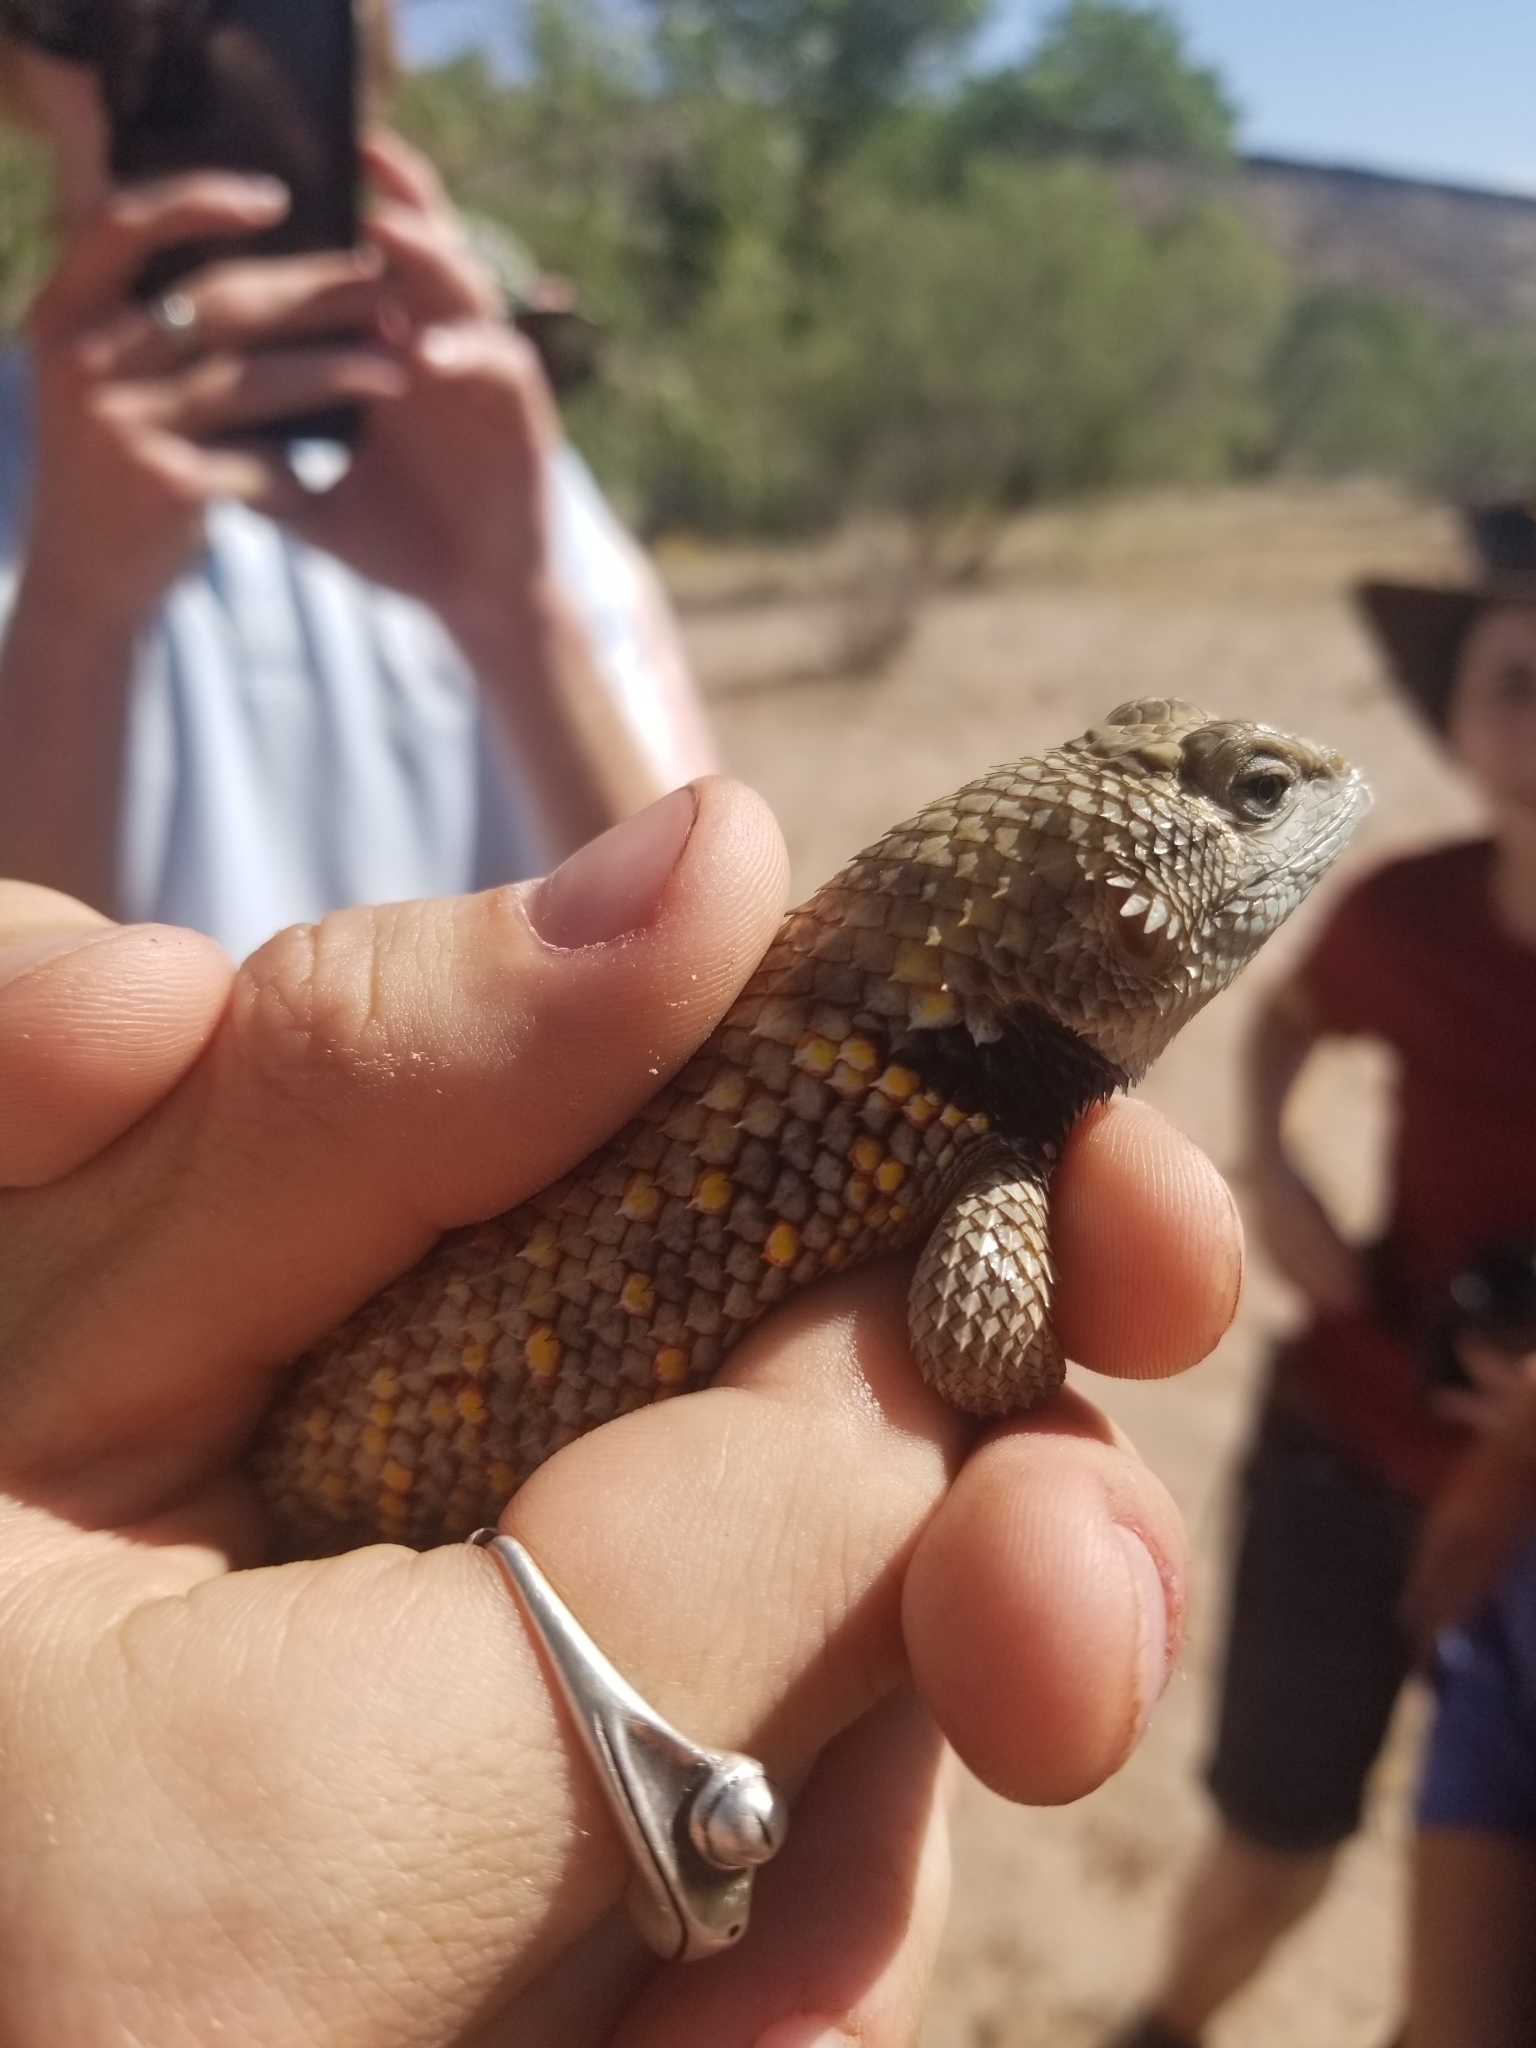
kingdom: Animalia
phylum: Chordata
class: Squamata
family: Phrynosomatidae
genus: Sceloporus
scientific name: Sceloporus uniformis
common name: Yellow-backed spiny lizard
